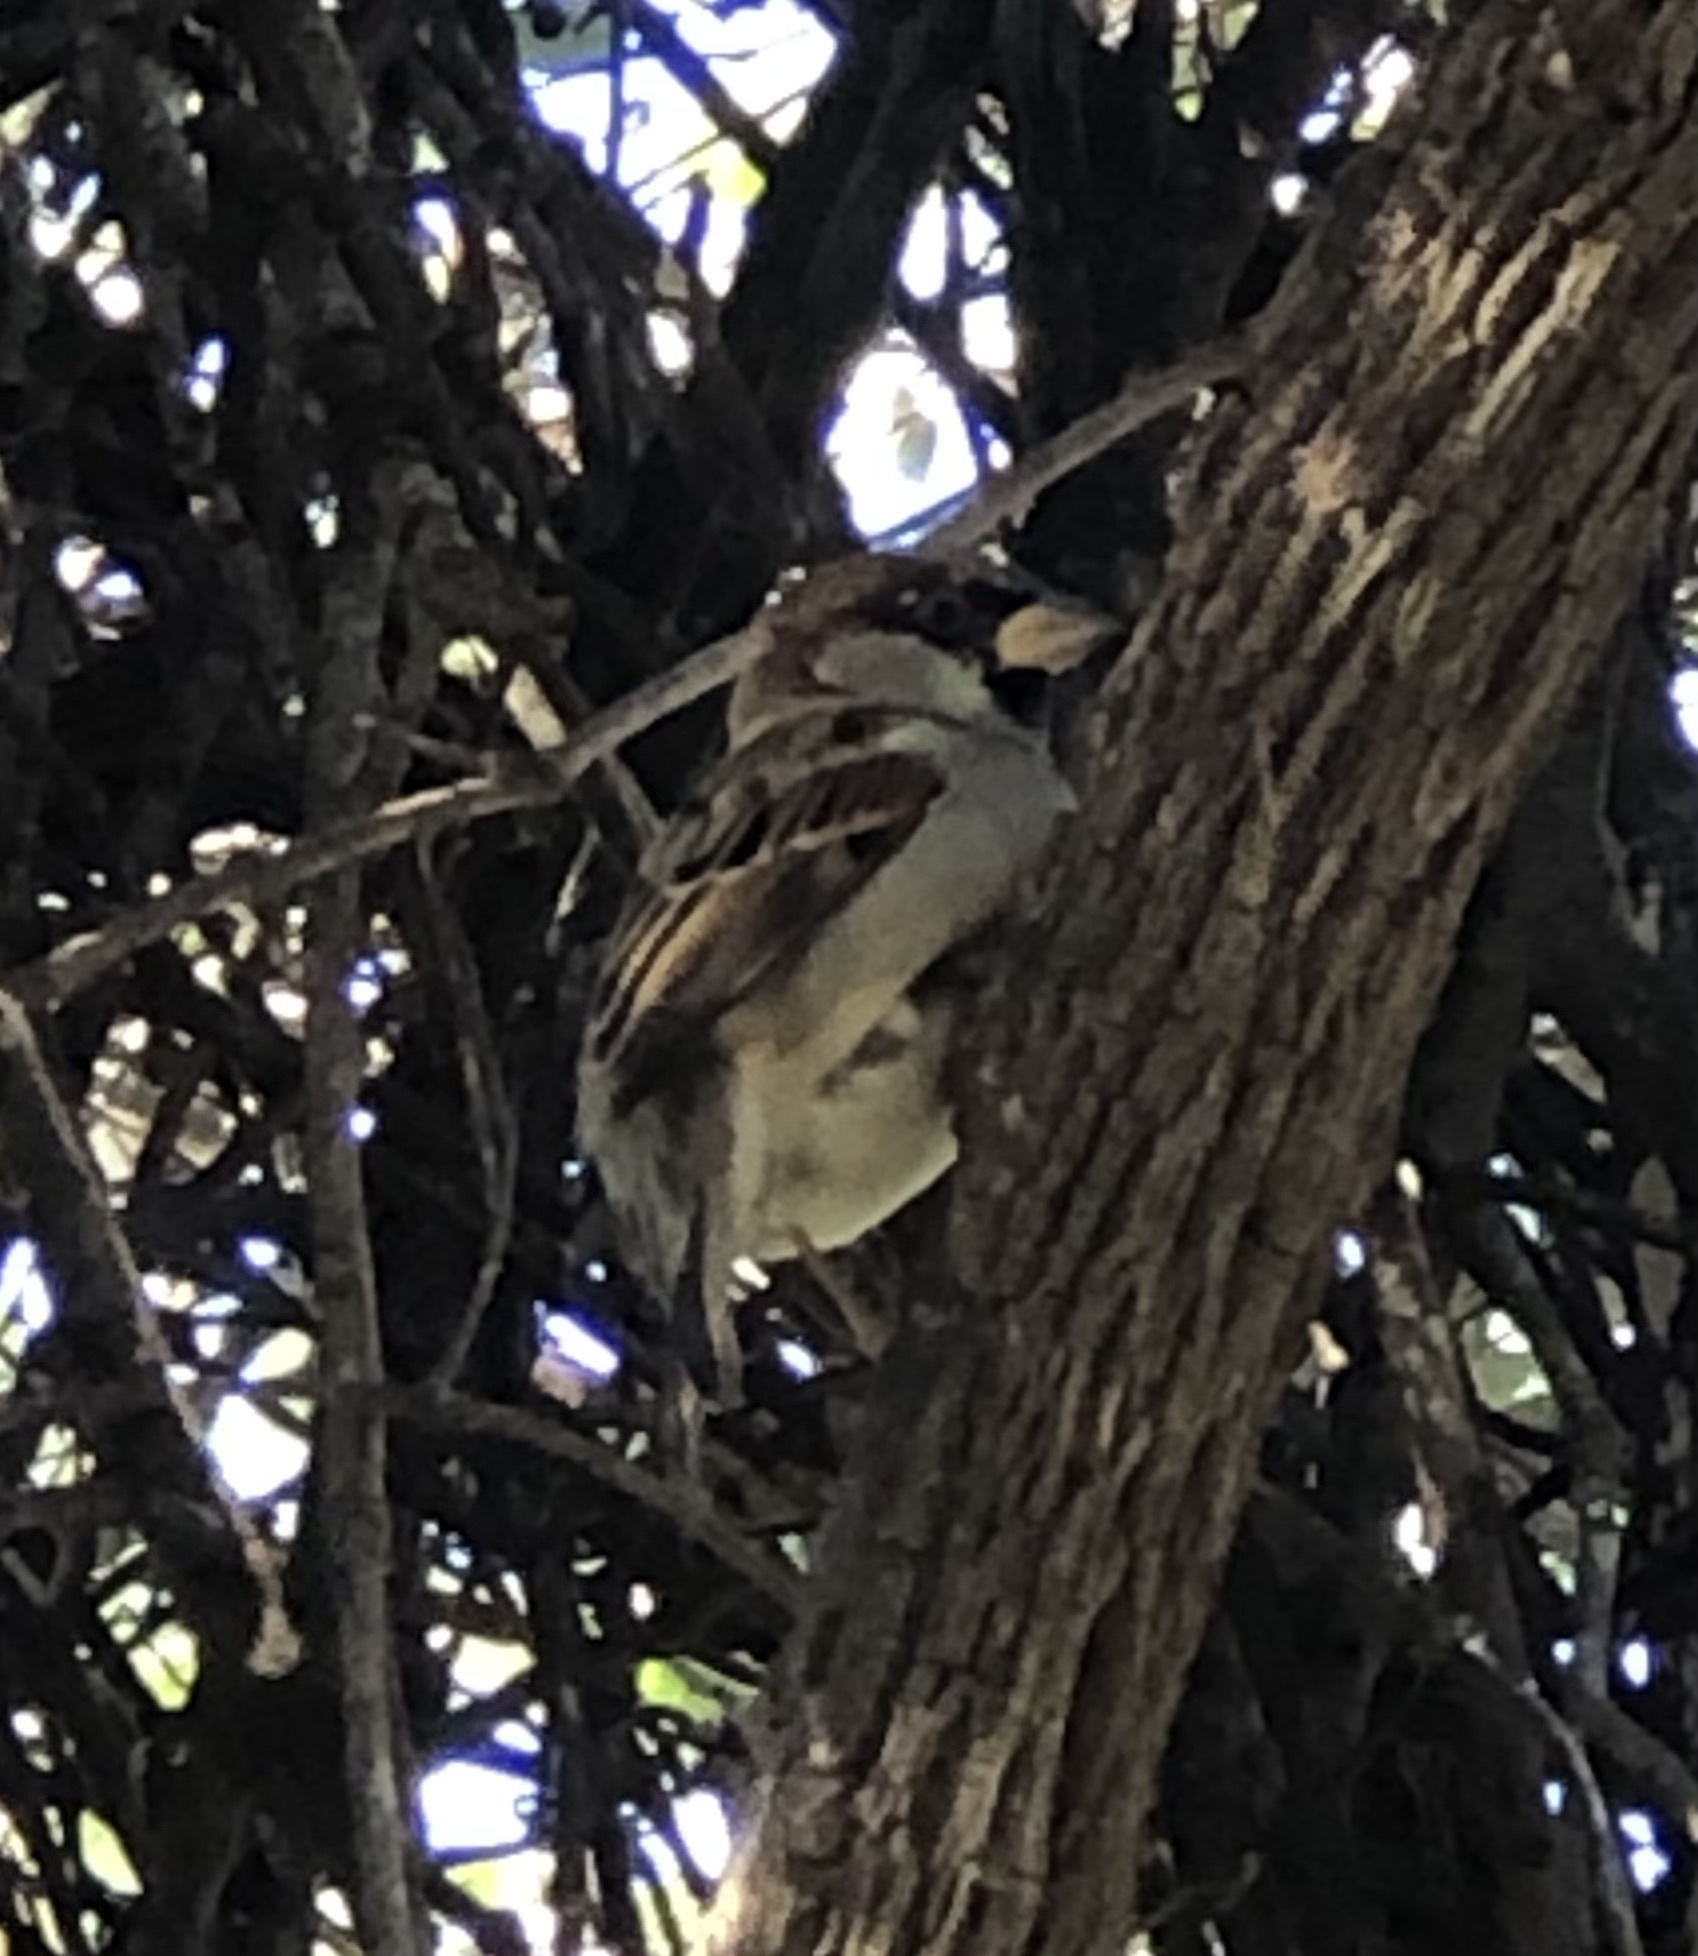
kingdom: Animalia
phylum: Chordata
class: Aves
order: Passeriformes
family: Passeridae
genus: Passer
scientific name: Passer domesticus
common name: House sparrow
